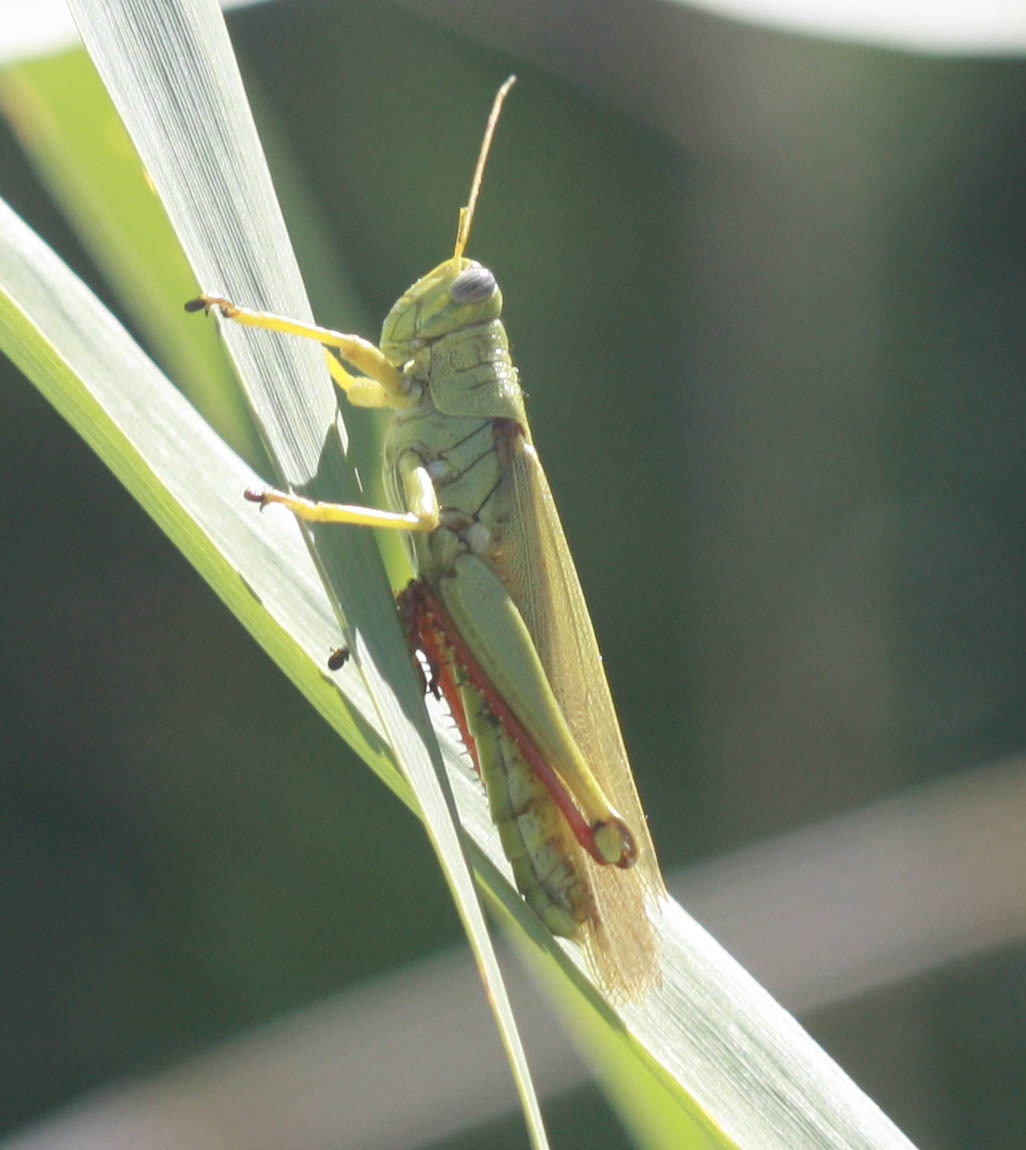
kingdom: Animalia
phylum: Arthropoda
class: Insecta
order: Orthoptera
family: Acrididae
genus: Schistocerca
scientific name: Schistocerca shoshone
